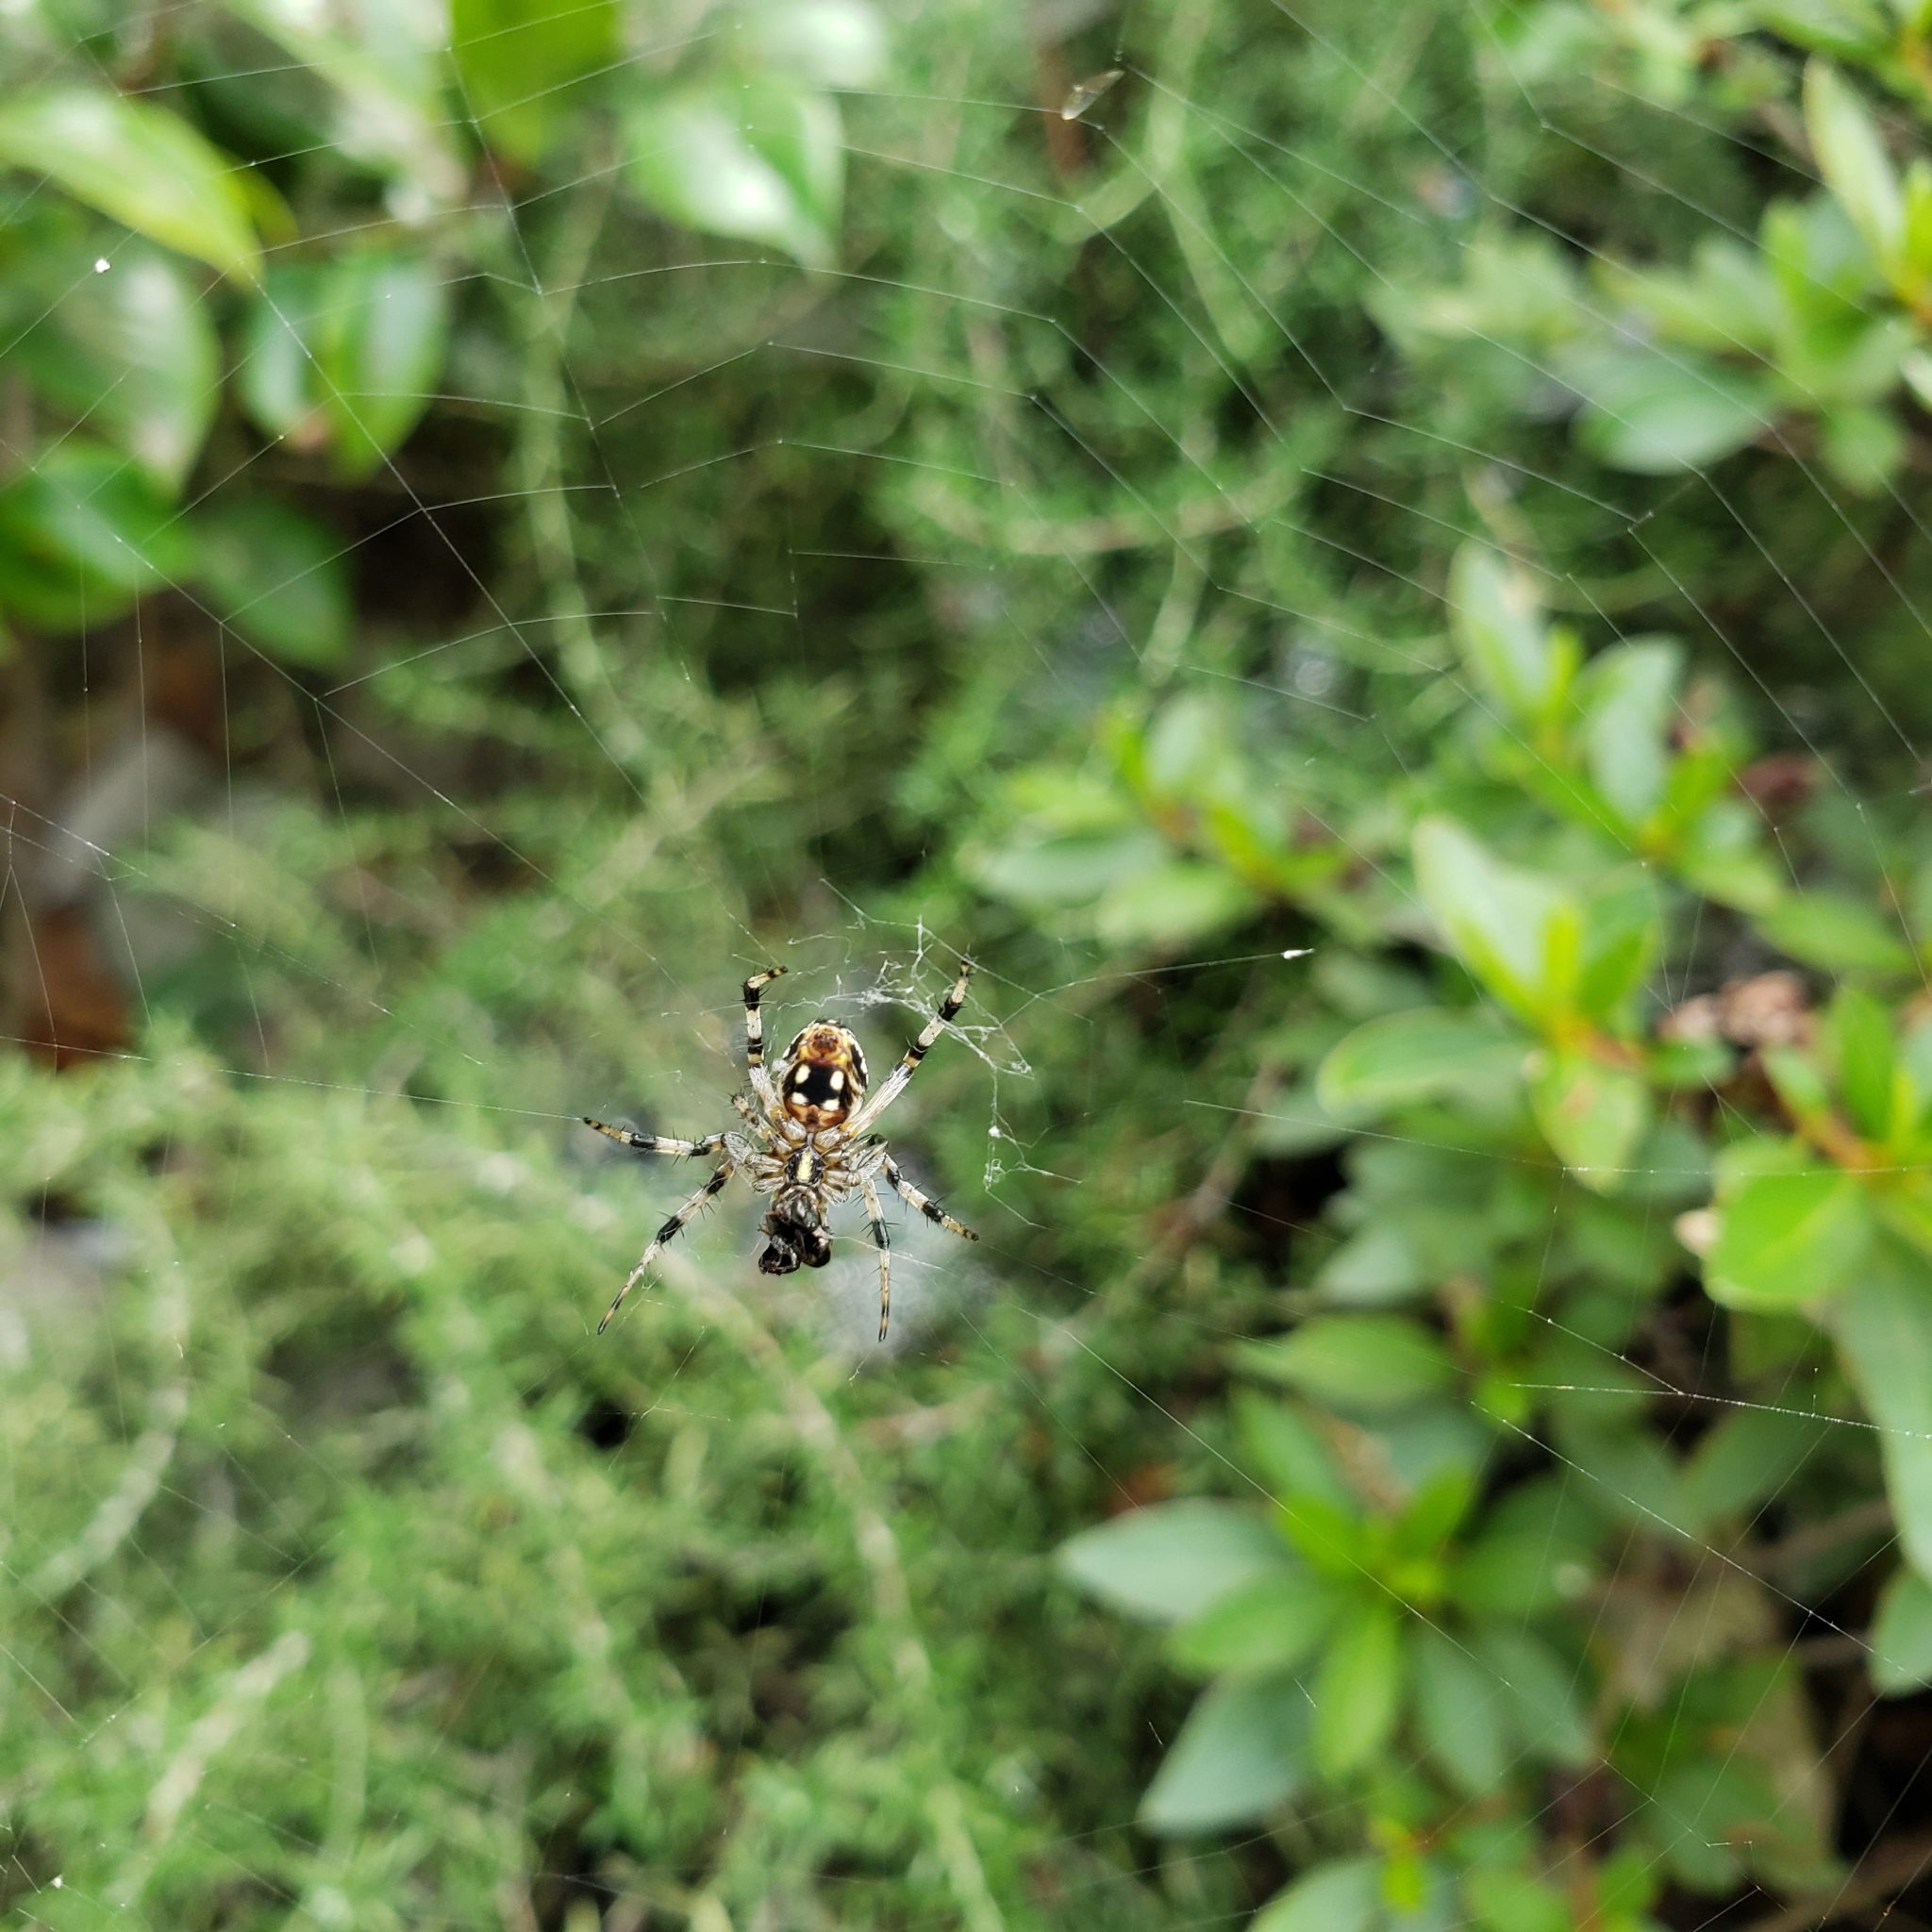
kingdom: Animalia
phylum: Arthropoda
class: Arachnida
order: Araneae
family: Araneidae
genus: Neoscona
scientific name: Neoscona oaxacensis
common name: Orb weavers
